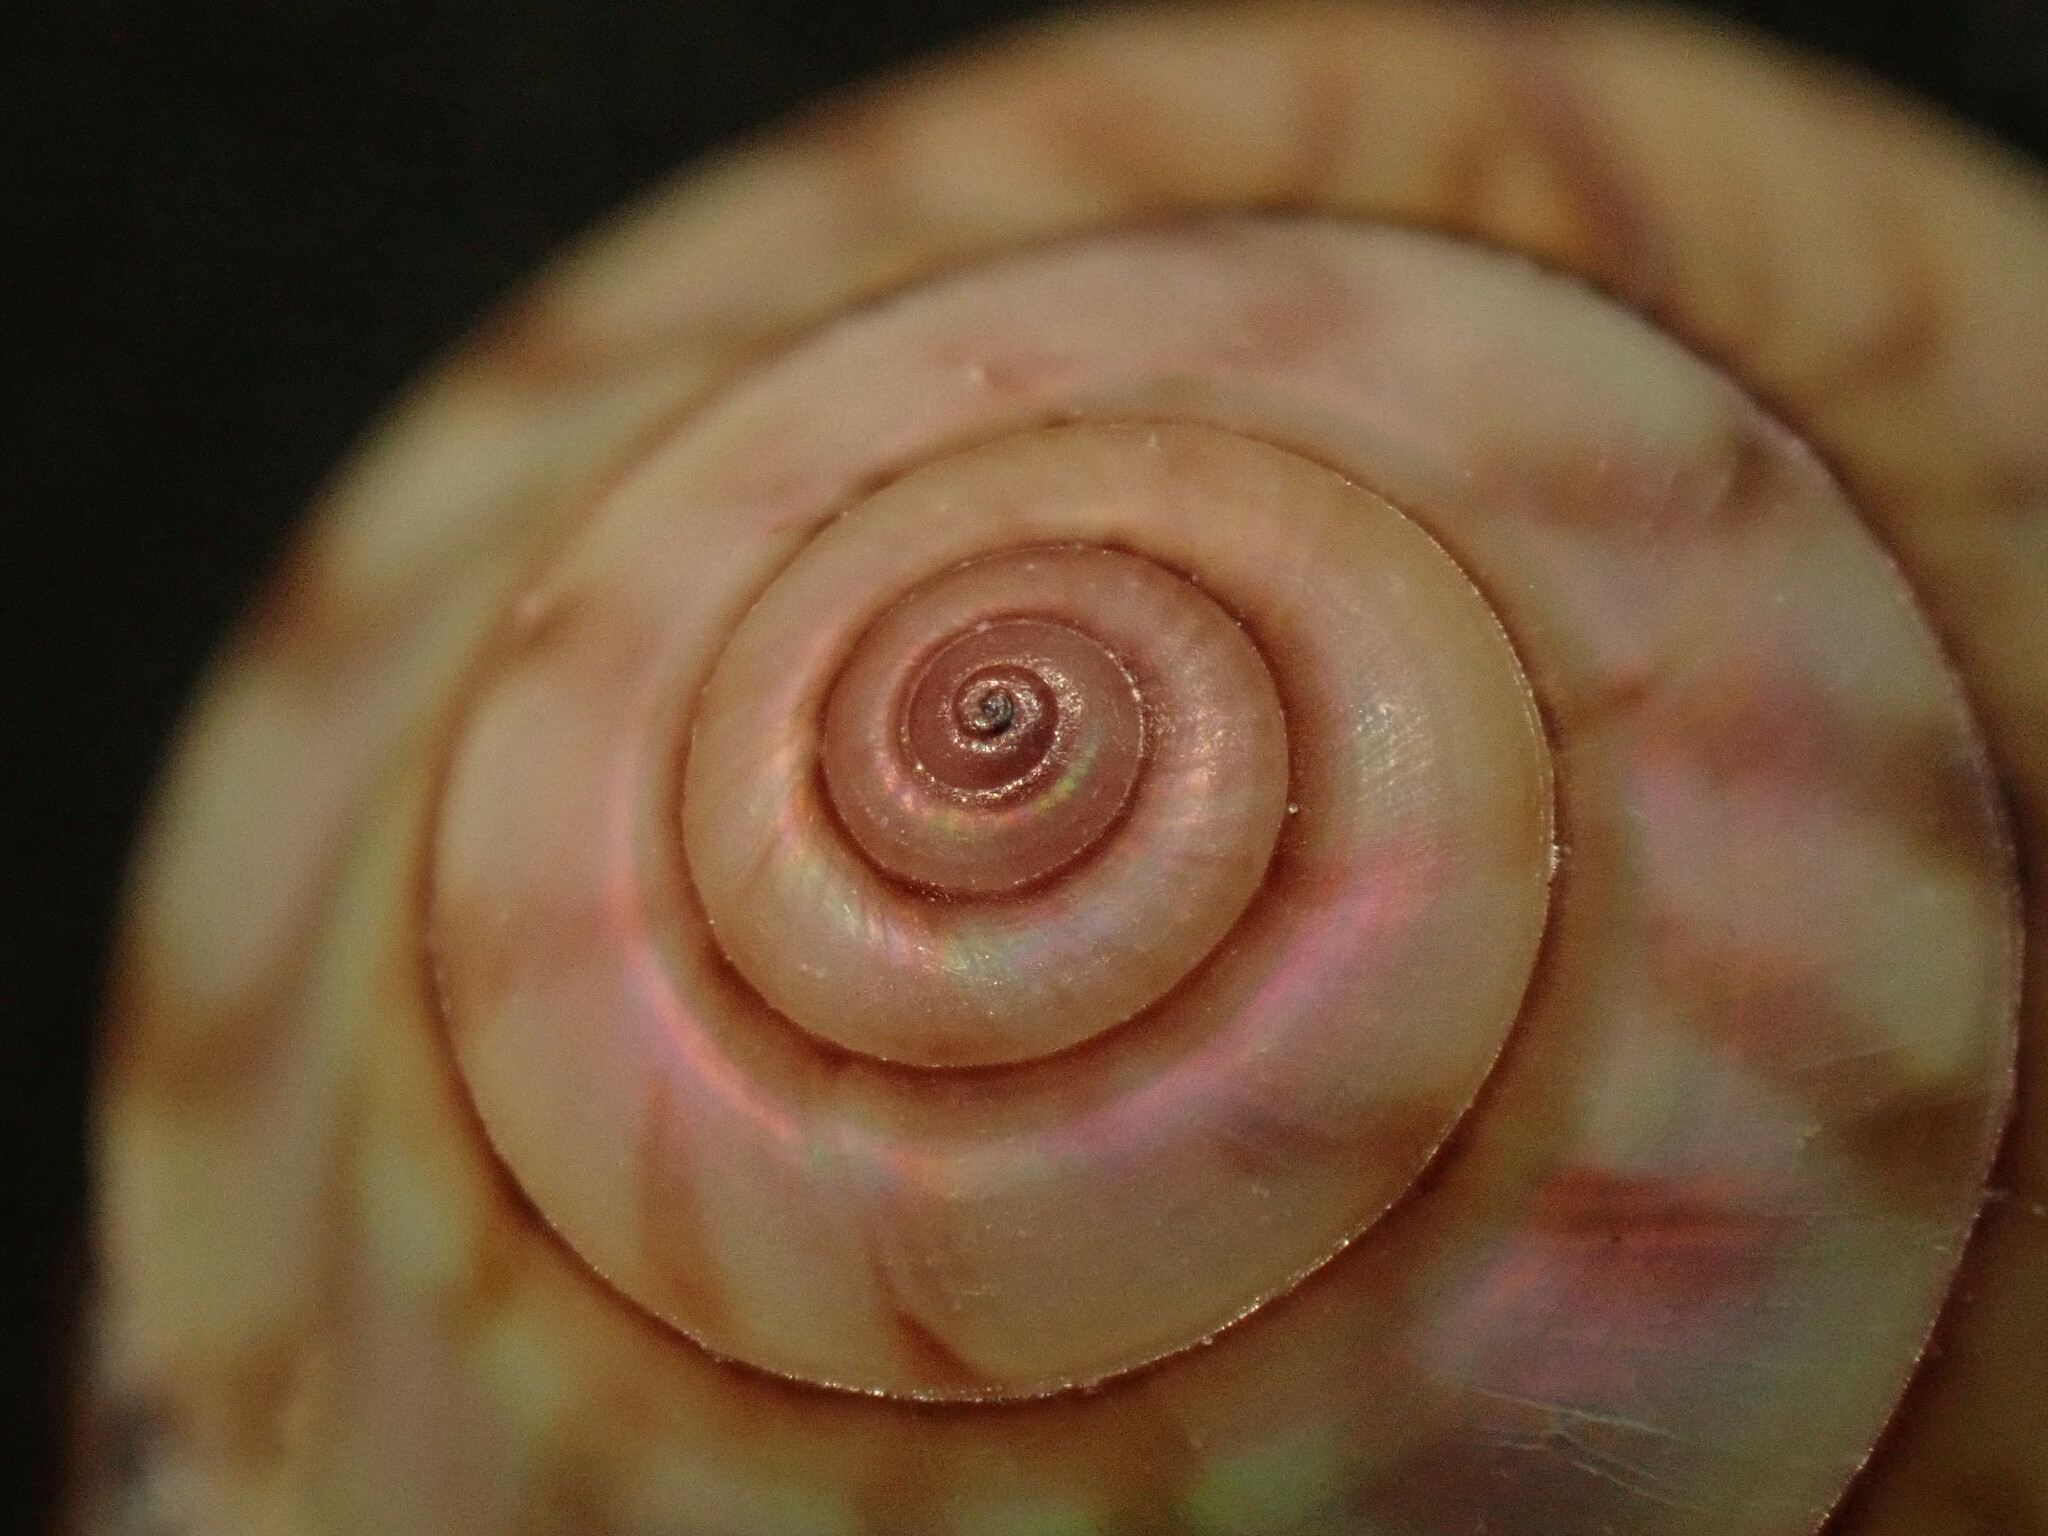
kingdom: Animalia
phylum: Mollusca
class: Gastropoda
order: Trochida
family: Trochidae
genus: Zethalia
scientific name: Zethalia zelandica
